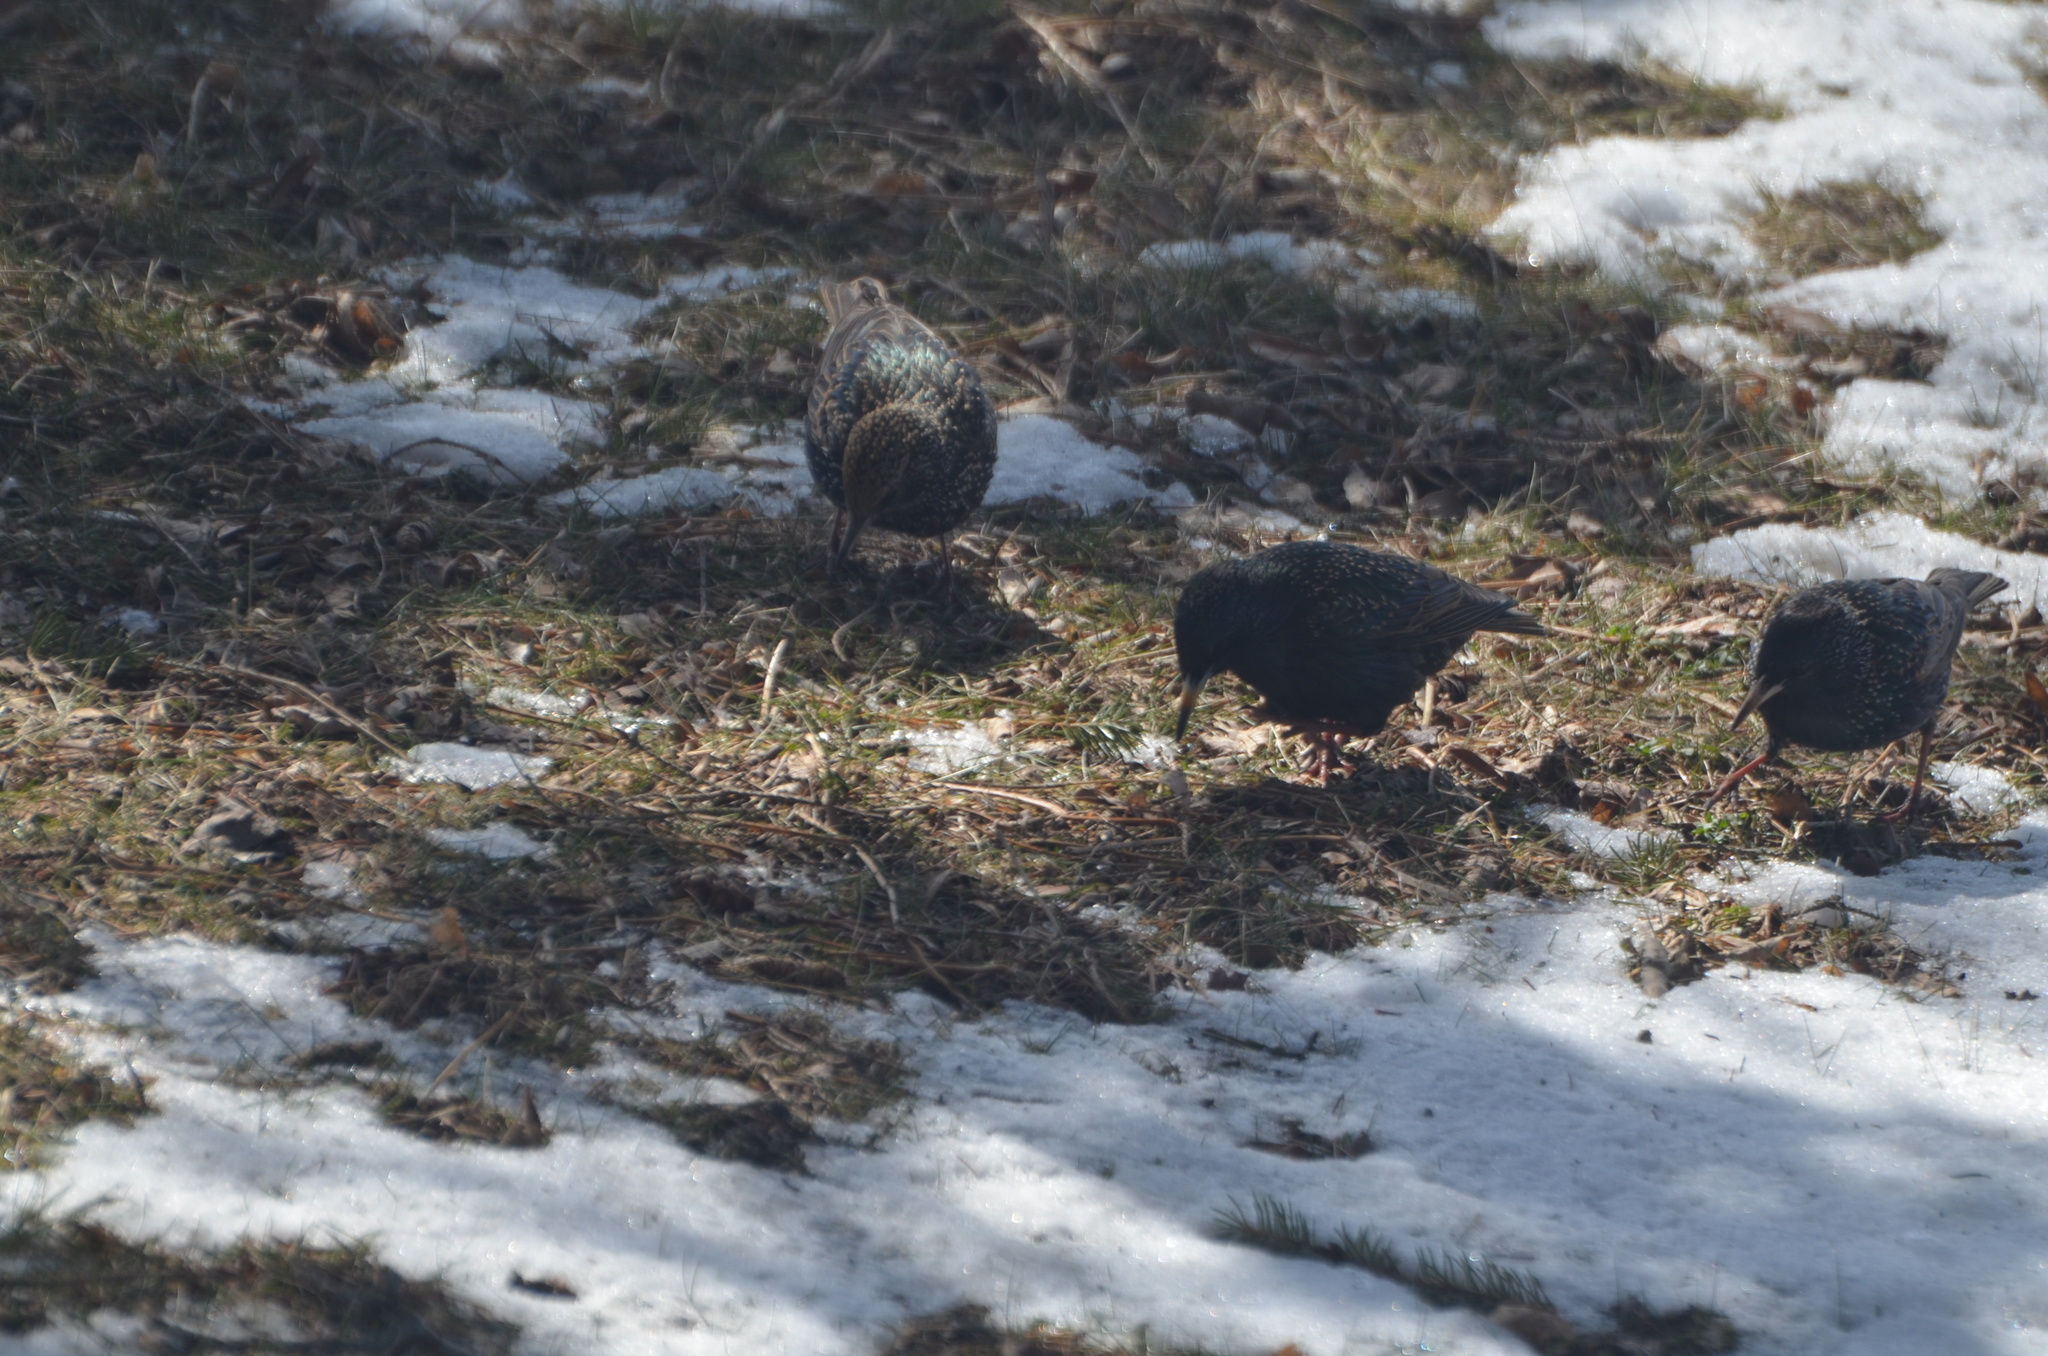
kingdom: Animalia
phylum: Chordata
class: Aves
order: Passeriformes
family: Sturnidae
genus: Sturnus
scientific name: Sturnus vulgaris
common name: Common starling
